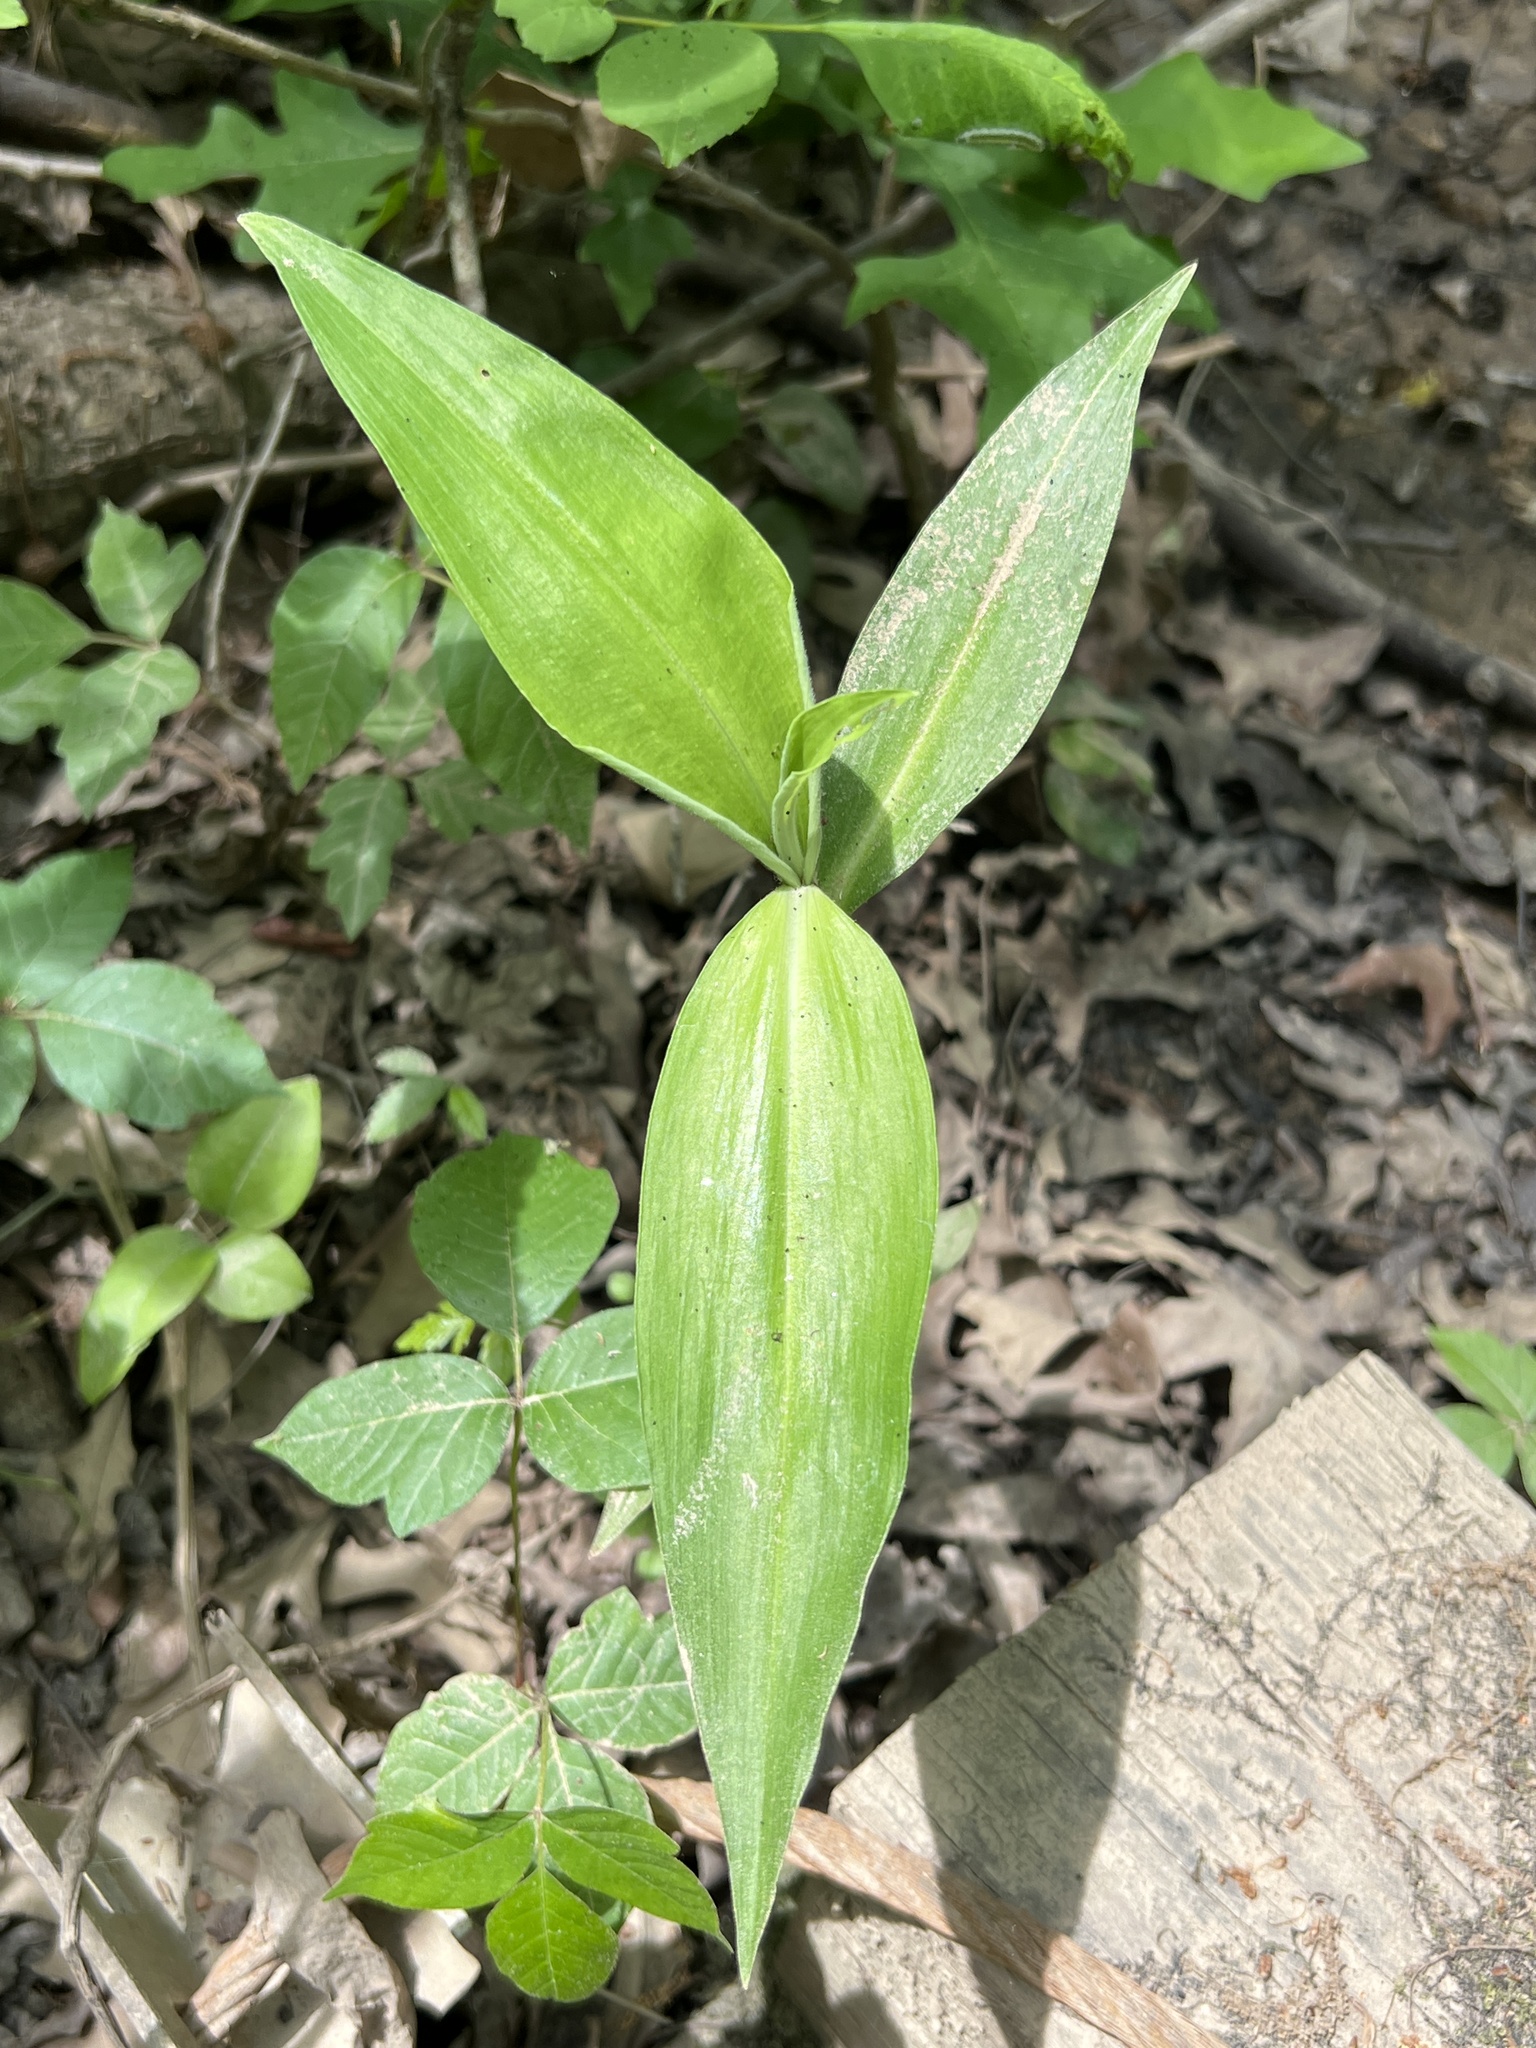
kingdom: Plantae
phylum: Tracheophyta
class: Liliopsida
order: Commelinales
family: Commelinaceae
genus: Commelina
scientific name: Commelina virginica
